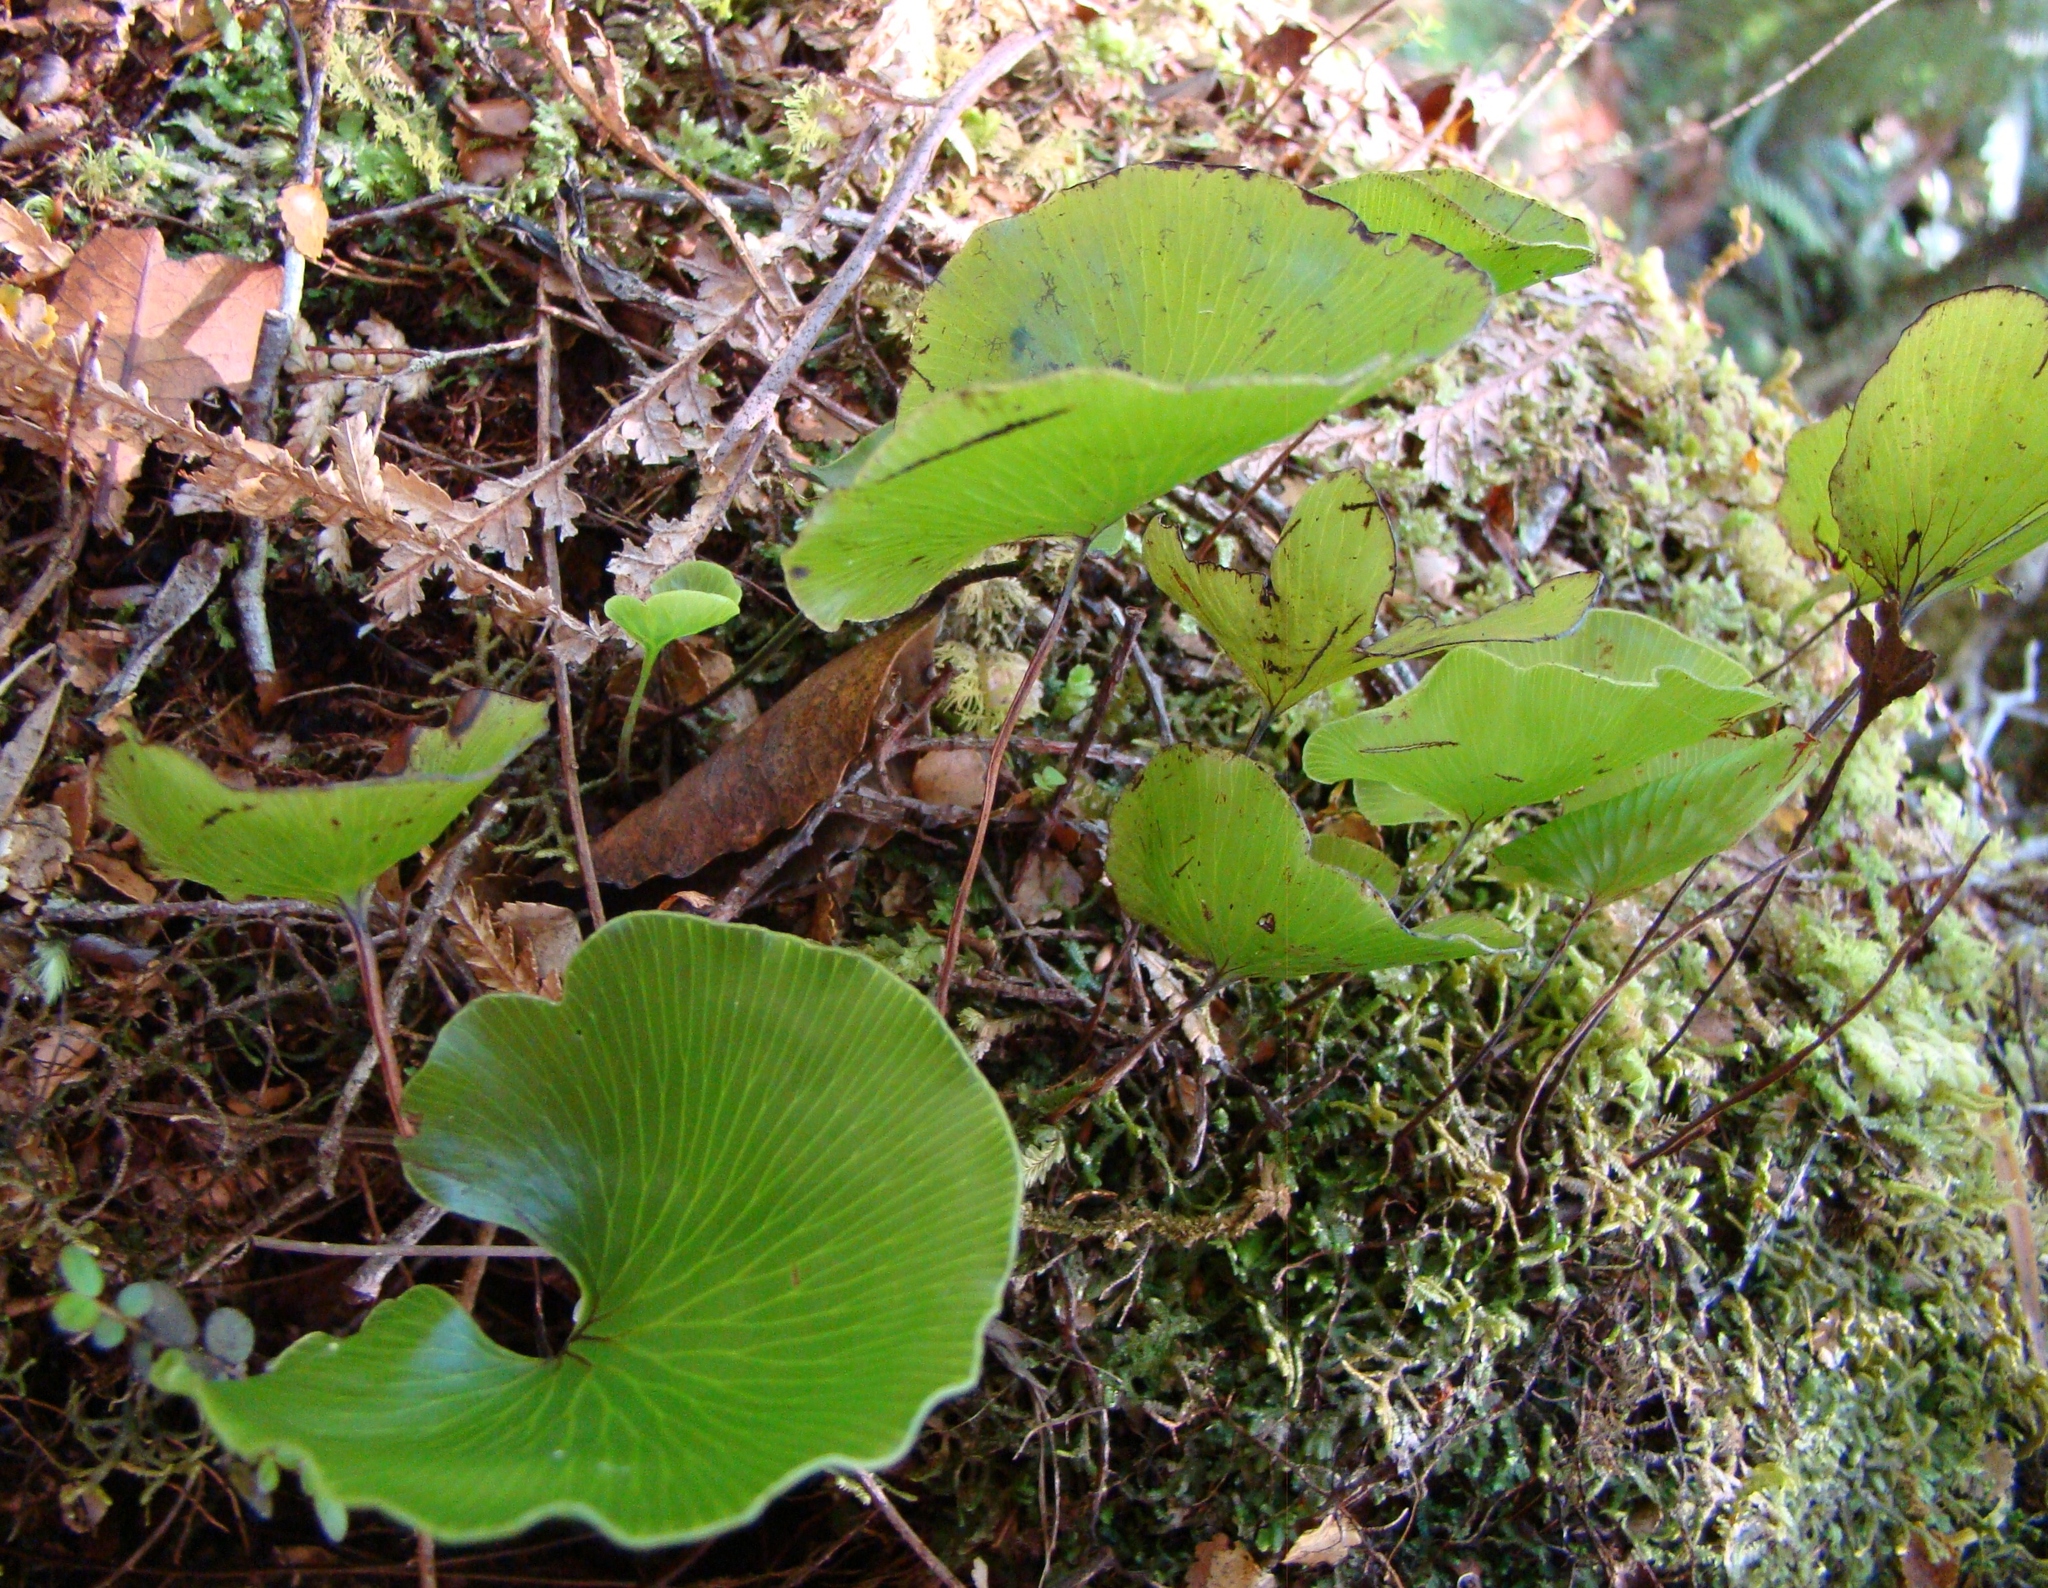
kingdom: Plantae
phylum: Tracheophyta
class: Polypodiopsida
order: Hymenophyllales
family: Hymenophyllaceae
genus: Hymenophyllum
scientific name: Hymenophyllum nephrophyllum
